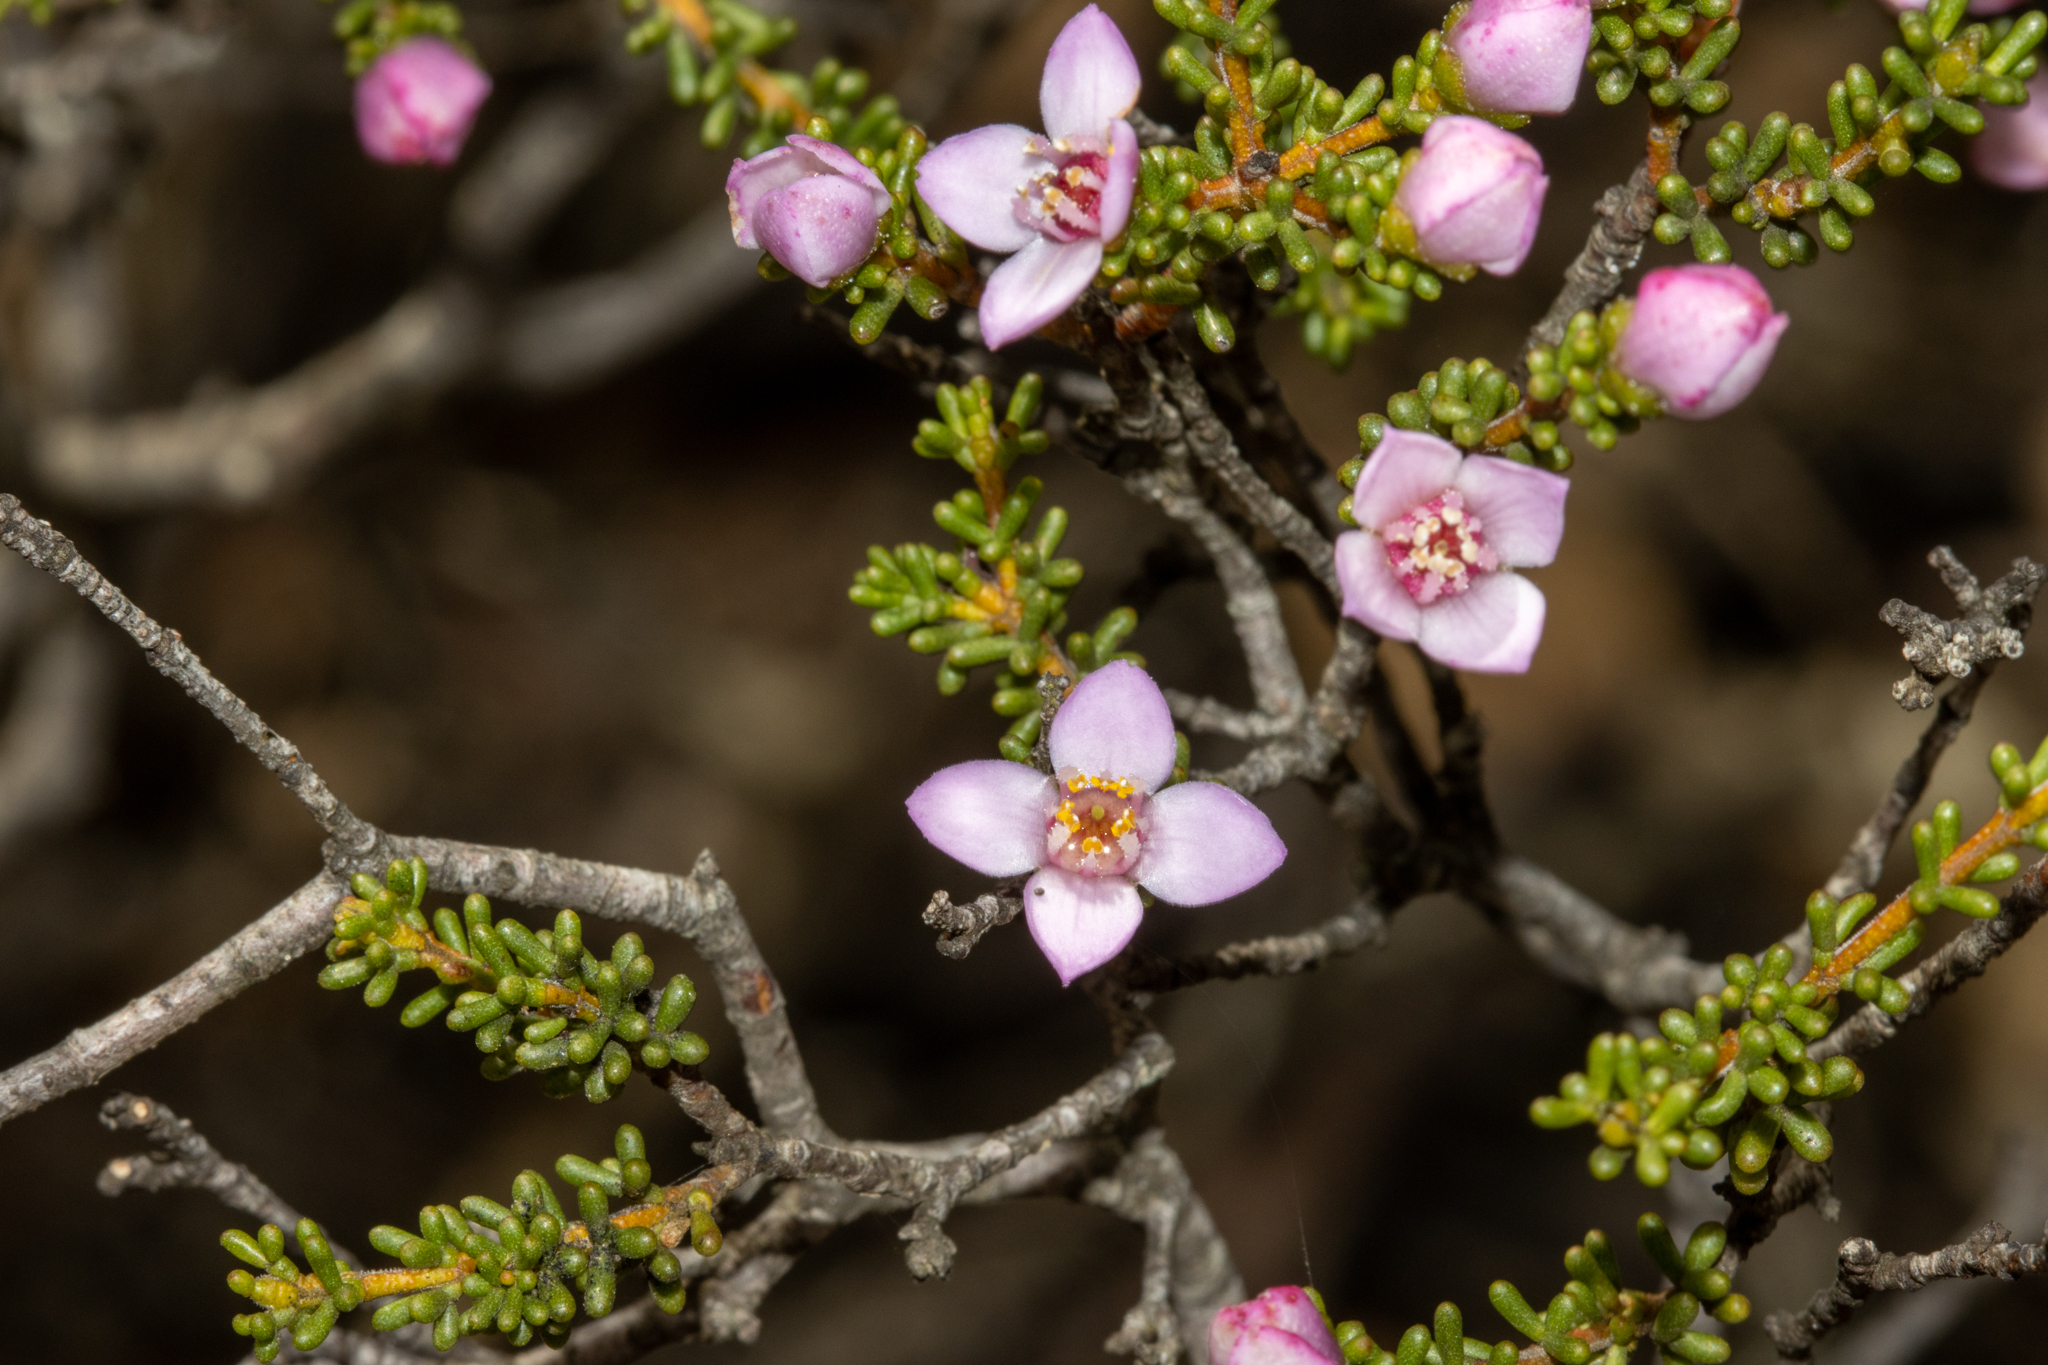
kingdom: Plantae
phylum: Tracheophyta
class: Magnoliopsida
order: Sapindales
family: Rutaceae
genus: Boronia
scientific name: Boronia inornata
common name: Desert boronia
